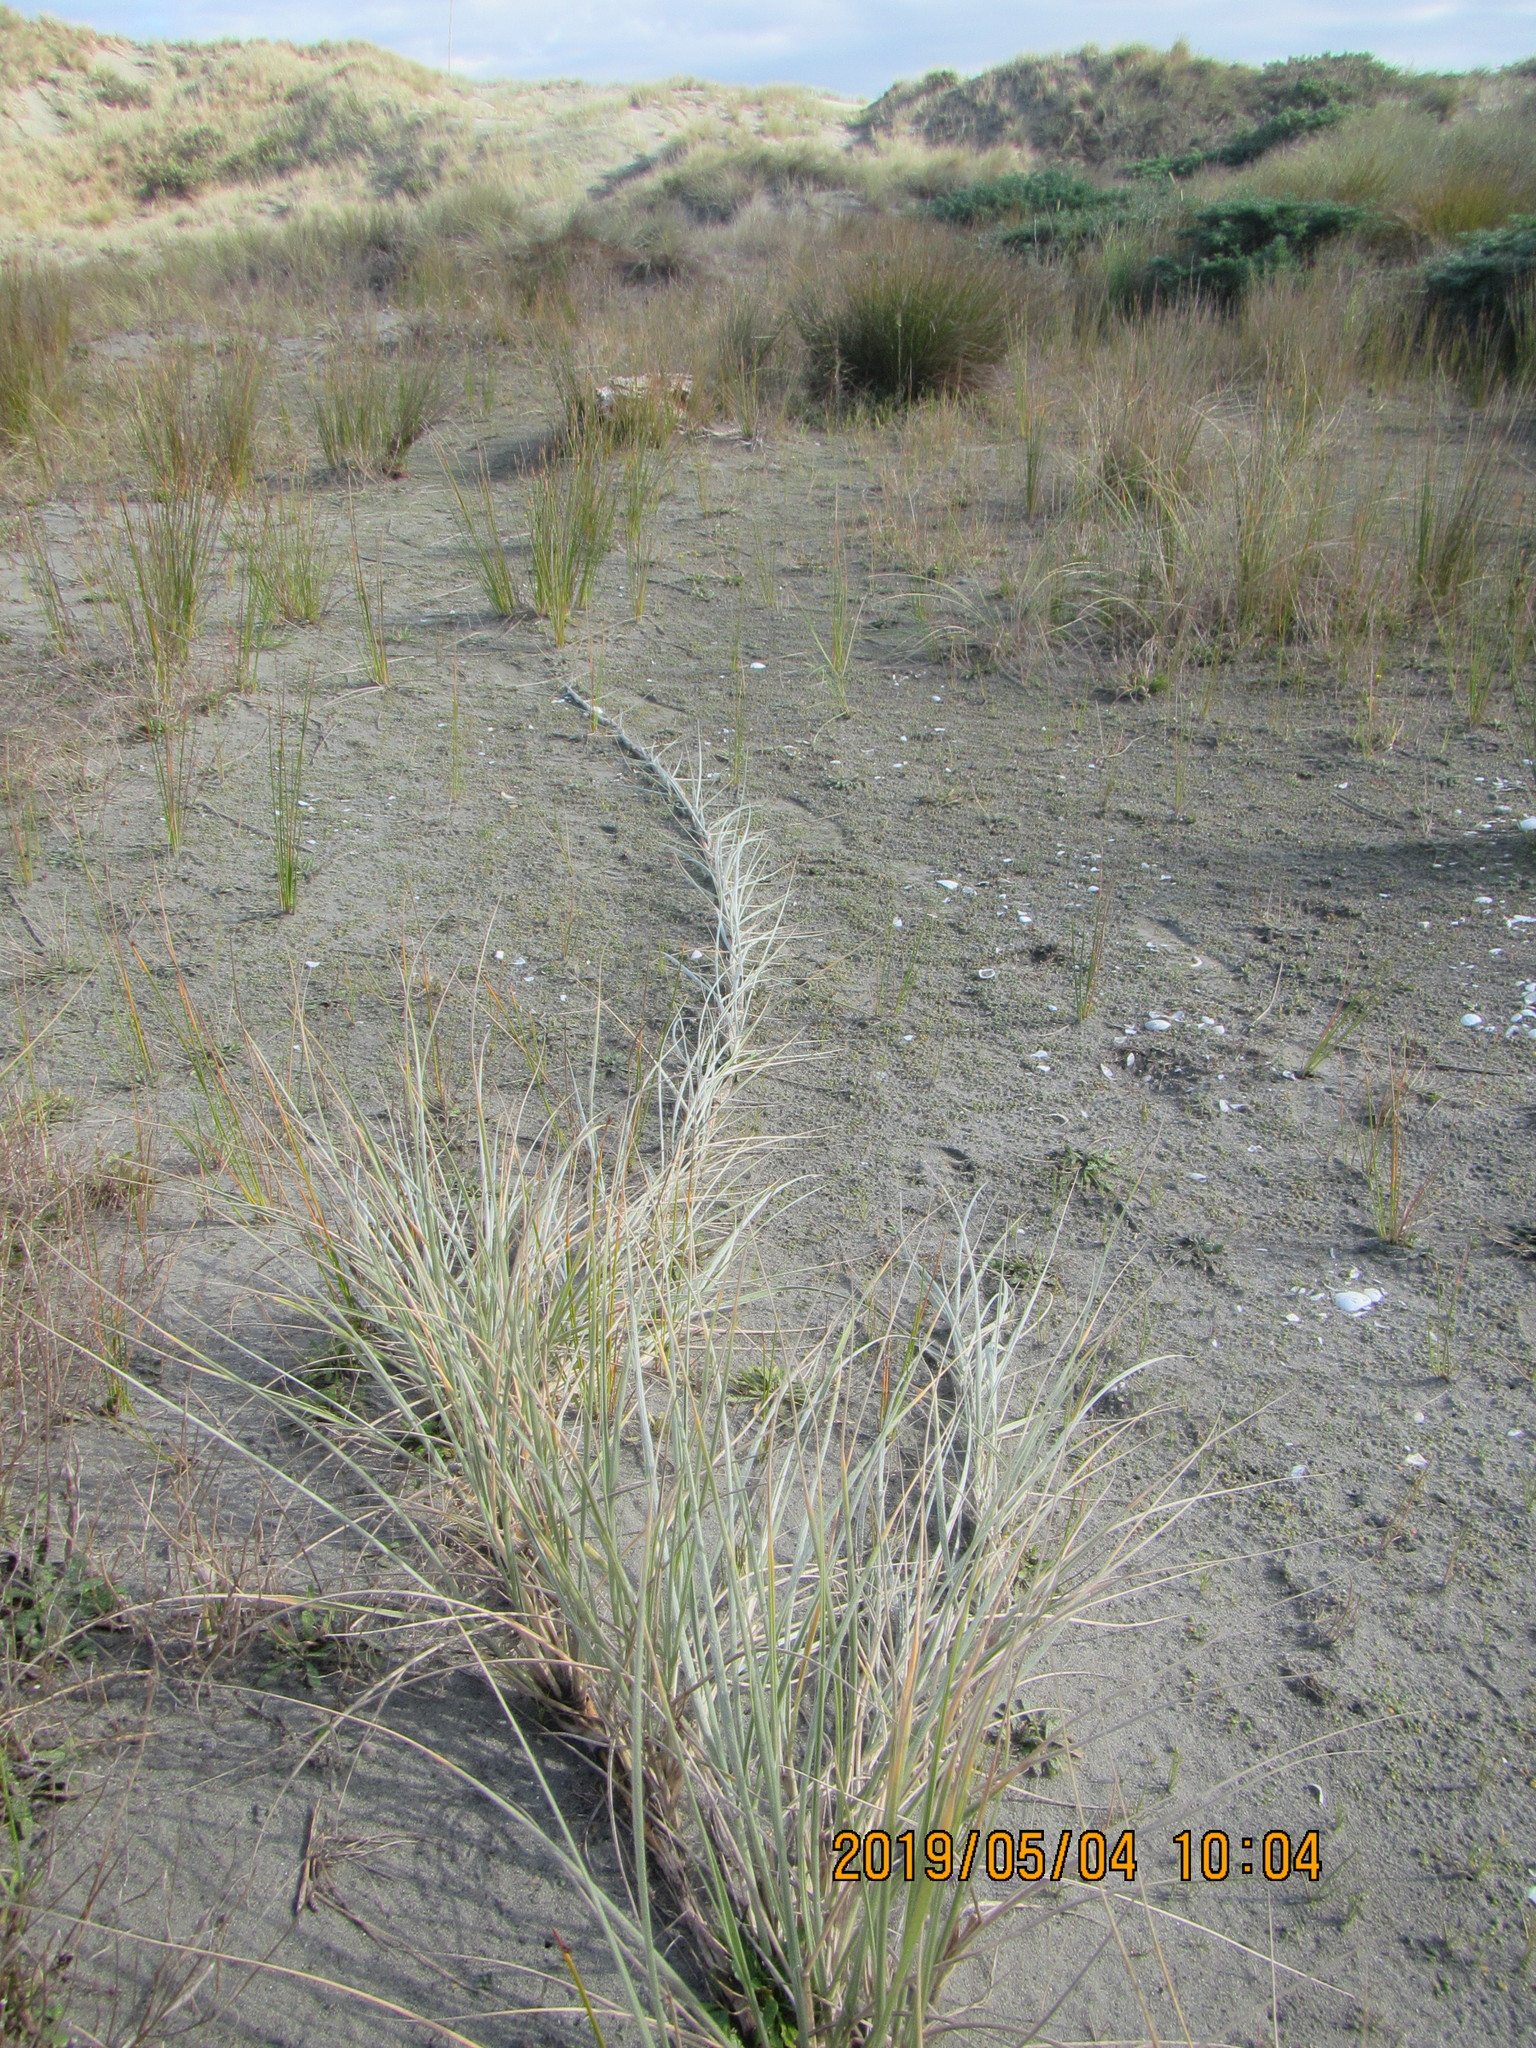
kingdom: Plantae
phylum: Tracheophyta
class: Liliopsida
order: Poales
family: Poaceae
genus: Spinifex
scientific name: Spinifex sericeus
